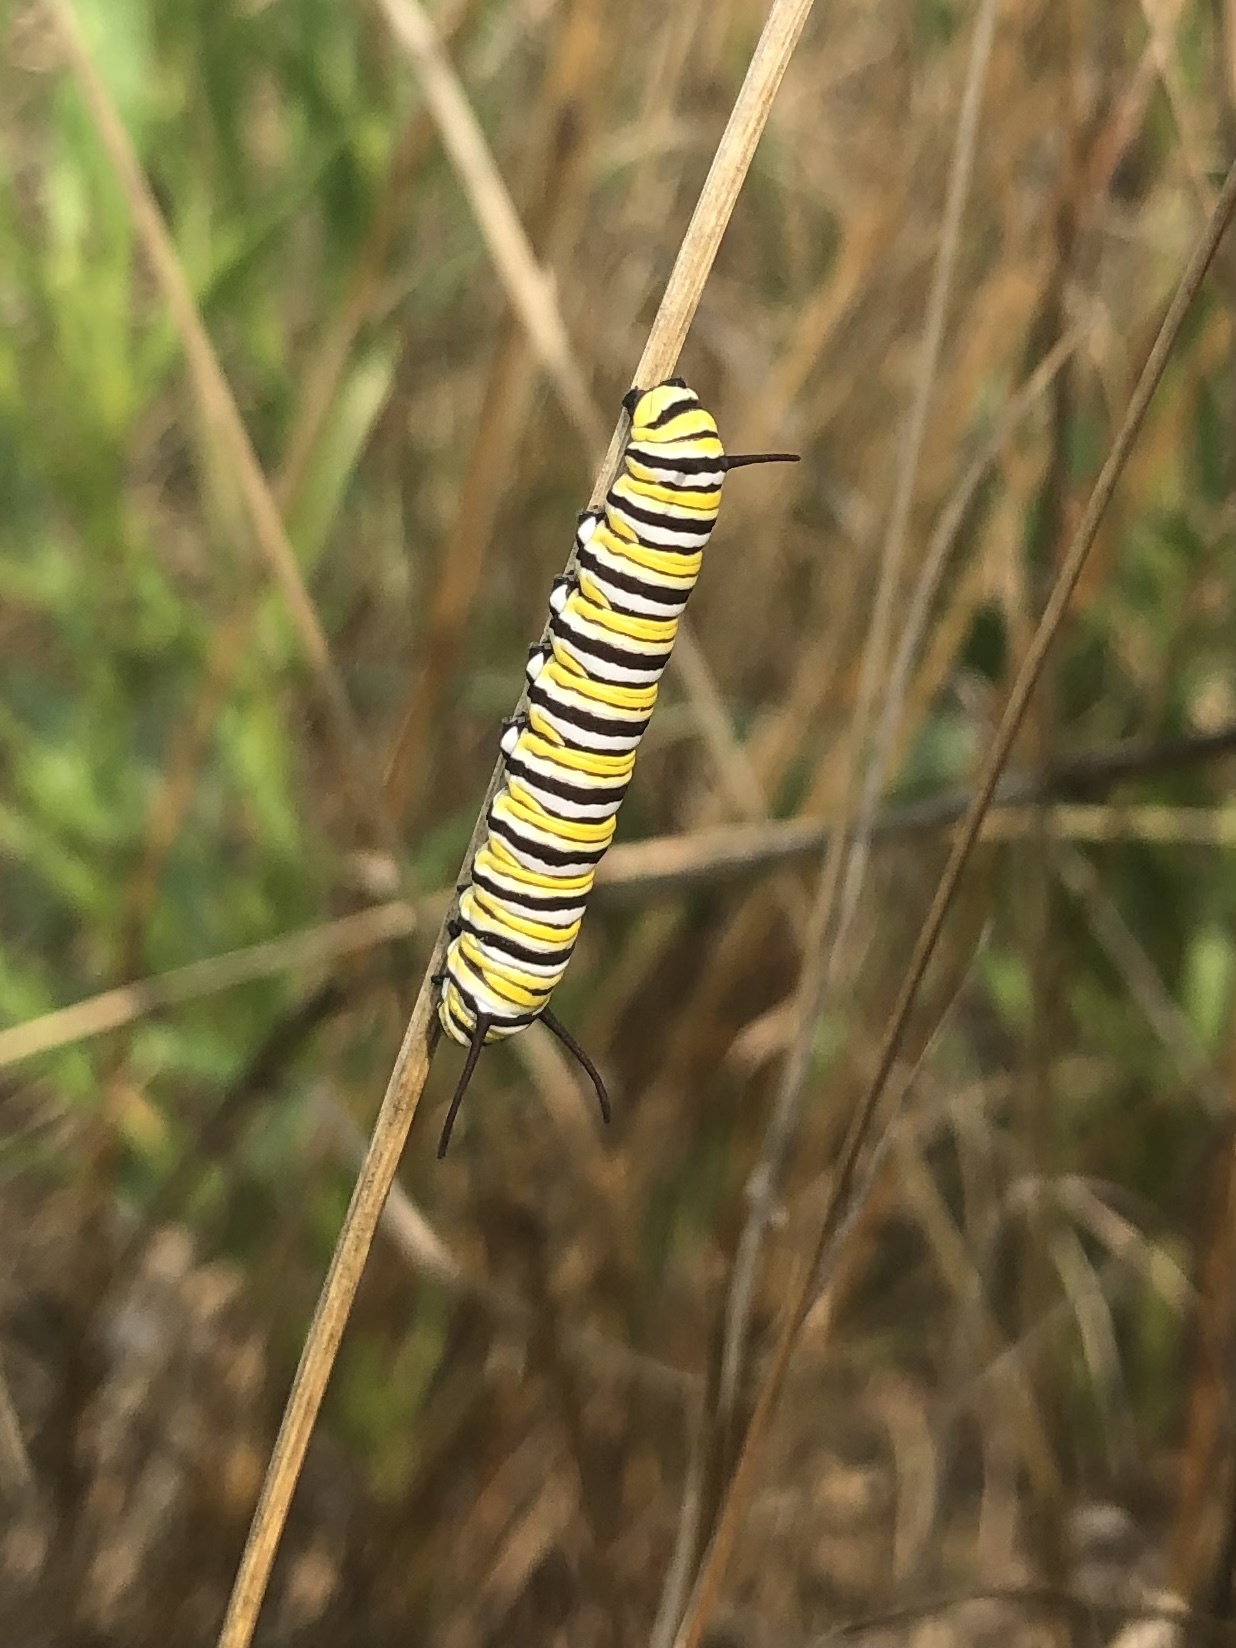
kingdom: Animalia
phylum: Arthropoda
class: Insecta
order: Lepidoptera
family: Nymphalidae
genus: Danaus
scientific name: Danaus plexippus
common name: Monarch
